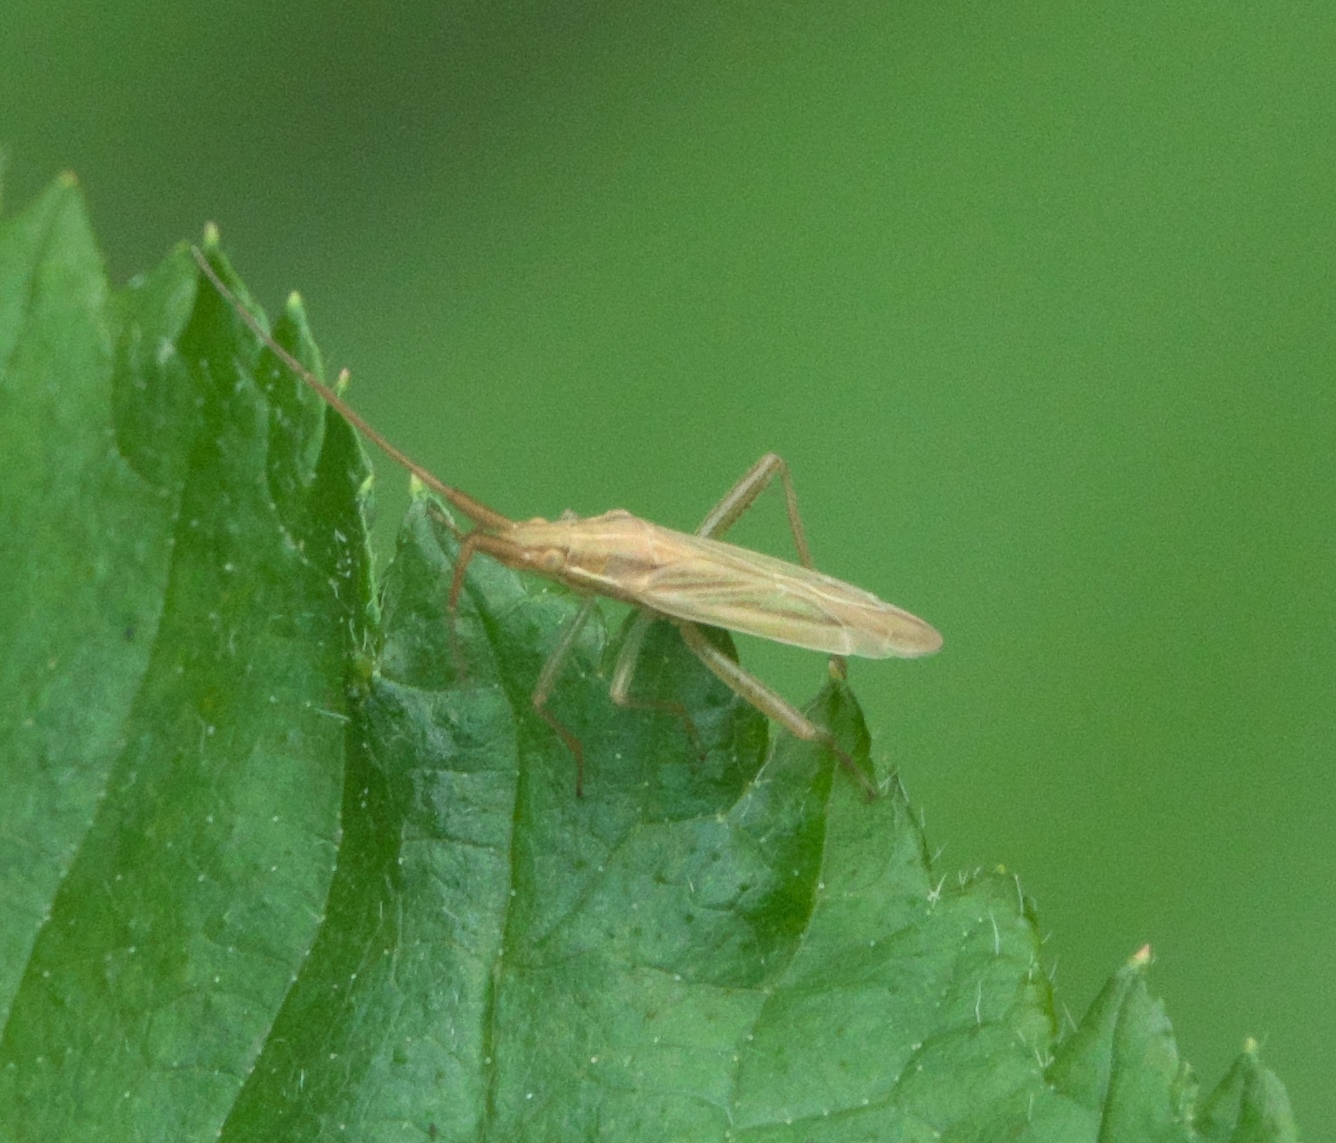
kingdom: Animalia
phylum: Arthropoda
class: Insecta
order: Hemiptera
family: Miridae
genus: Stenodema
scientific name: Stenodema trispinosa
